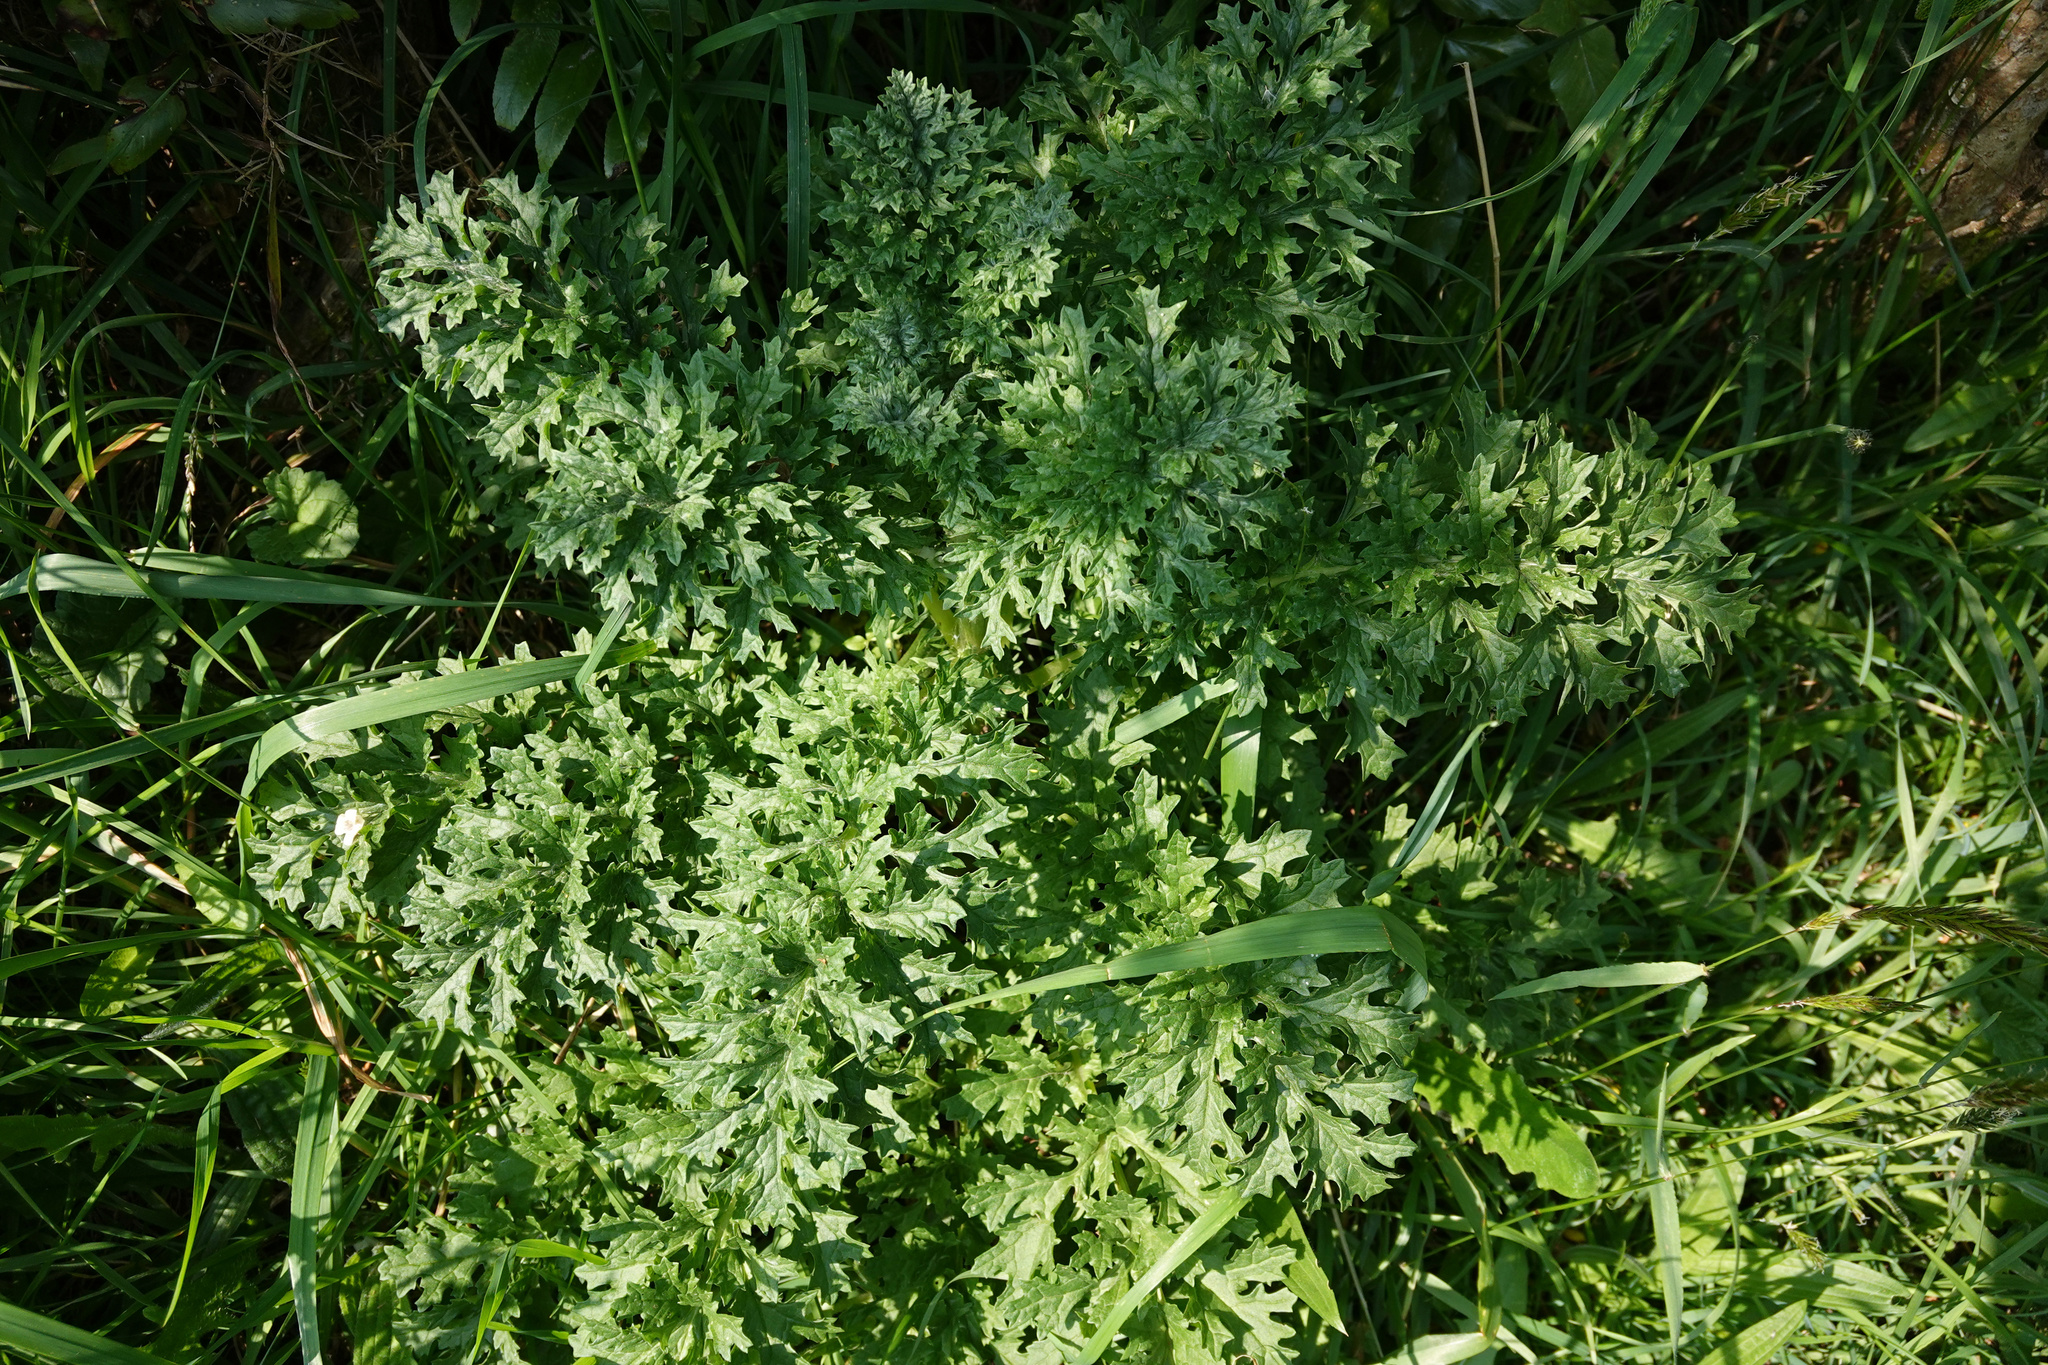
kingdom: Plantae
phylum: Tracheophyta
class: Magnoliopsida
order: Asterales
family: Asteraceae
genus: Jacobaea
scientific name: Jacobaea vulgaris
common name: Stinking willie
